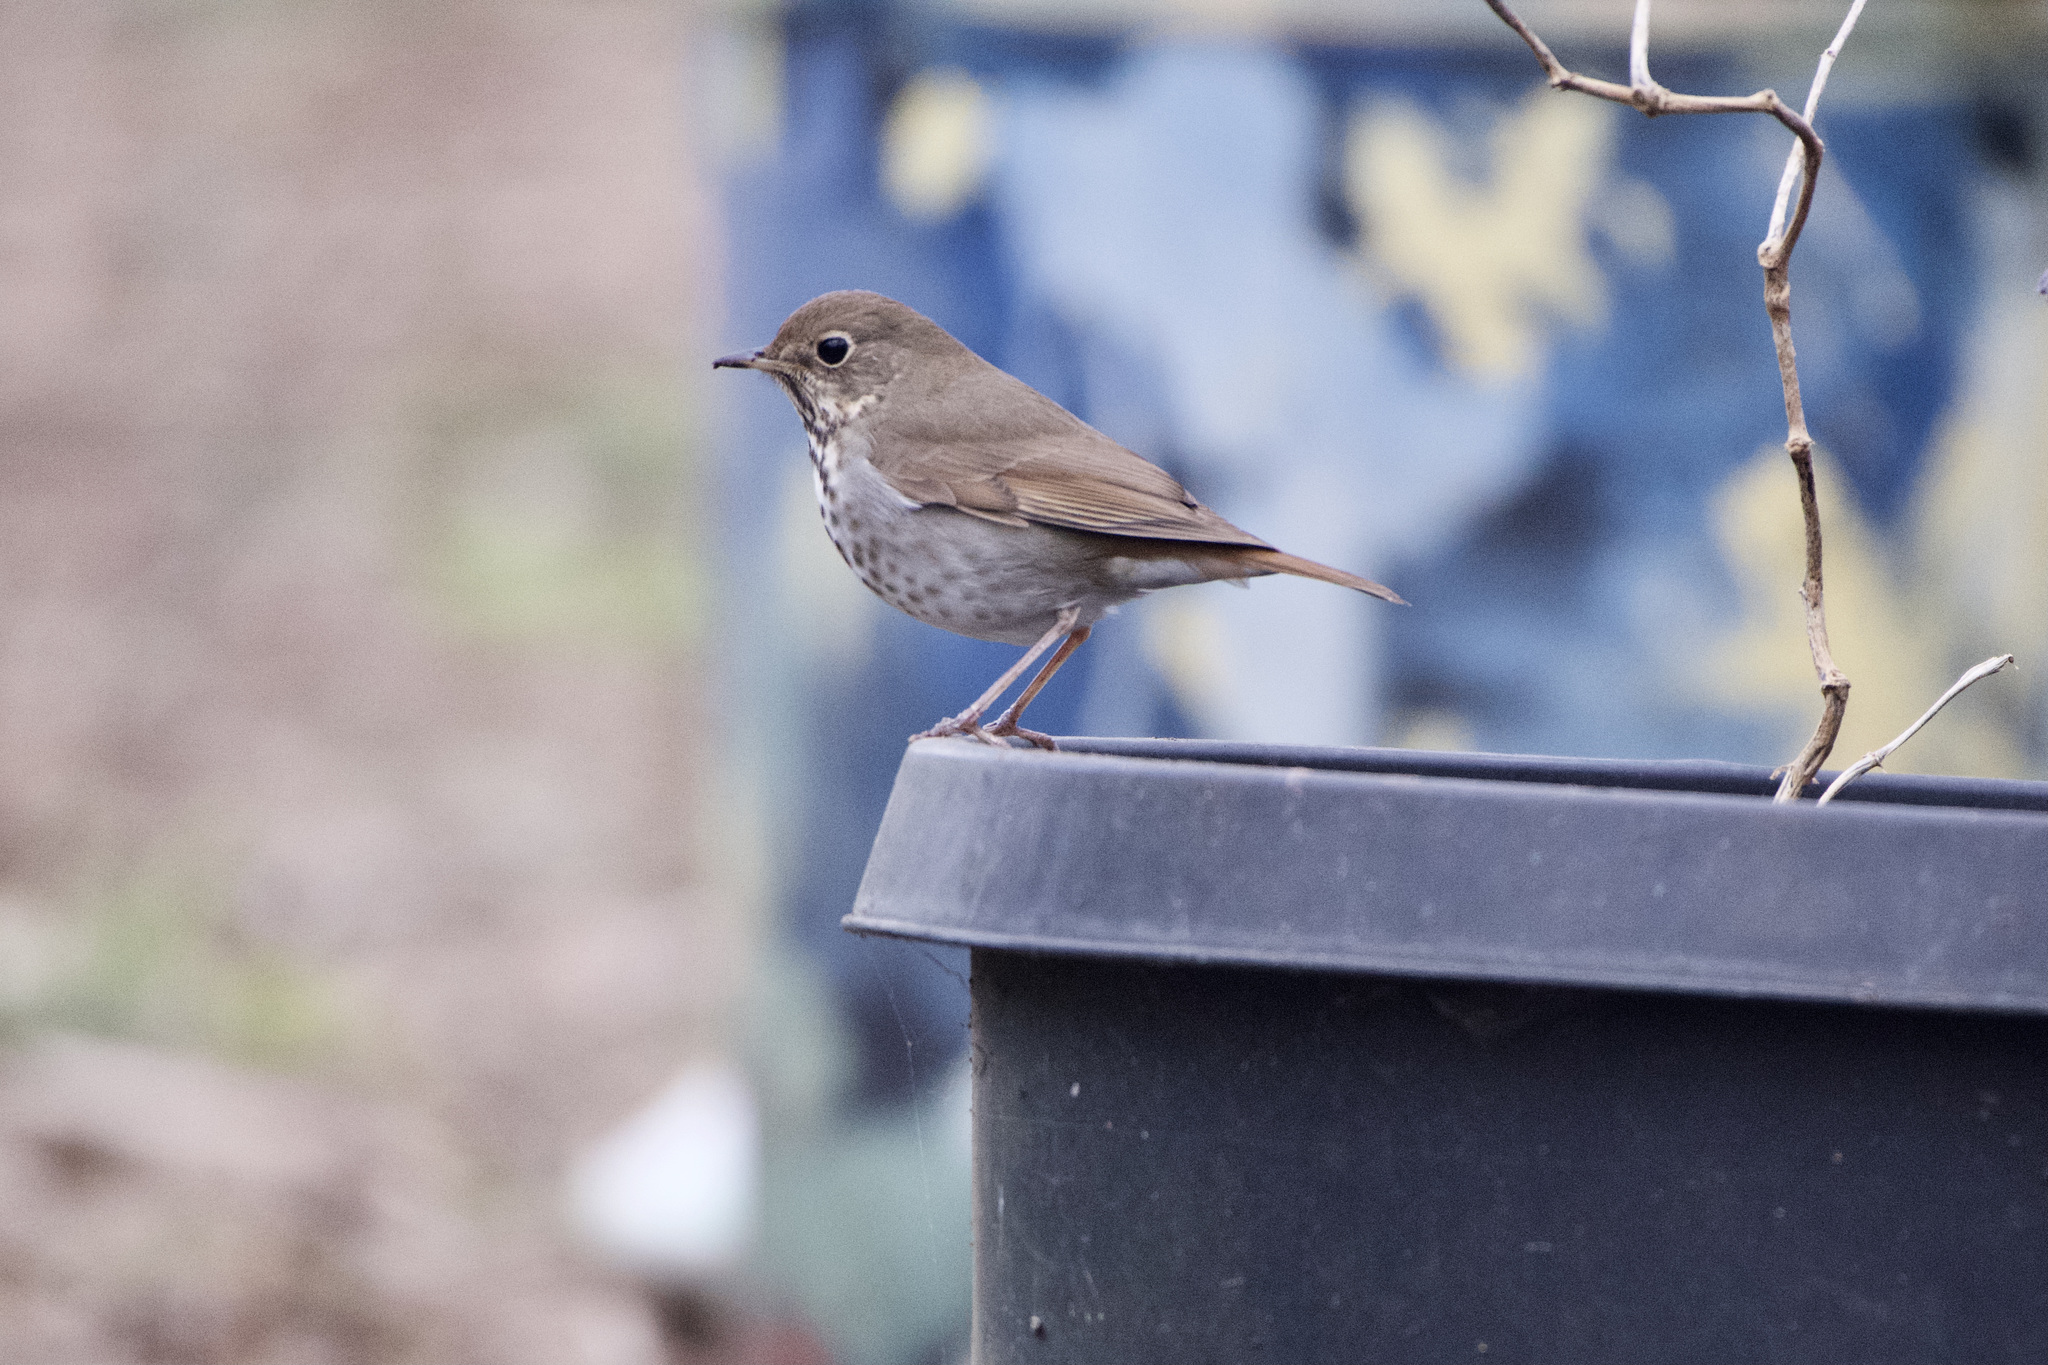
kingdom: Animalia
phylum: Chordata
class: Aves
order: Passeriformes
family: Turdidae
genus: Catharus
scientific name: Catharus guttatus
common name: Hermit thrush
